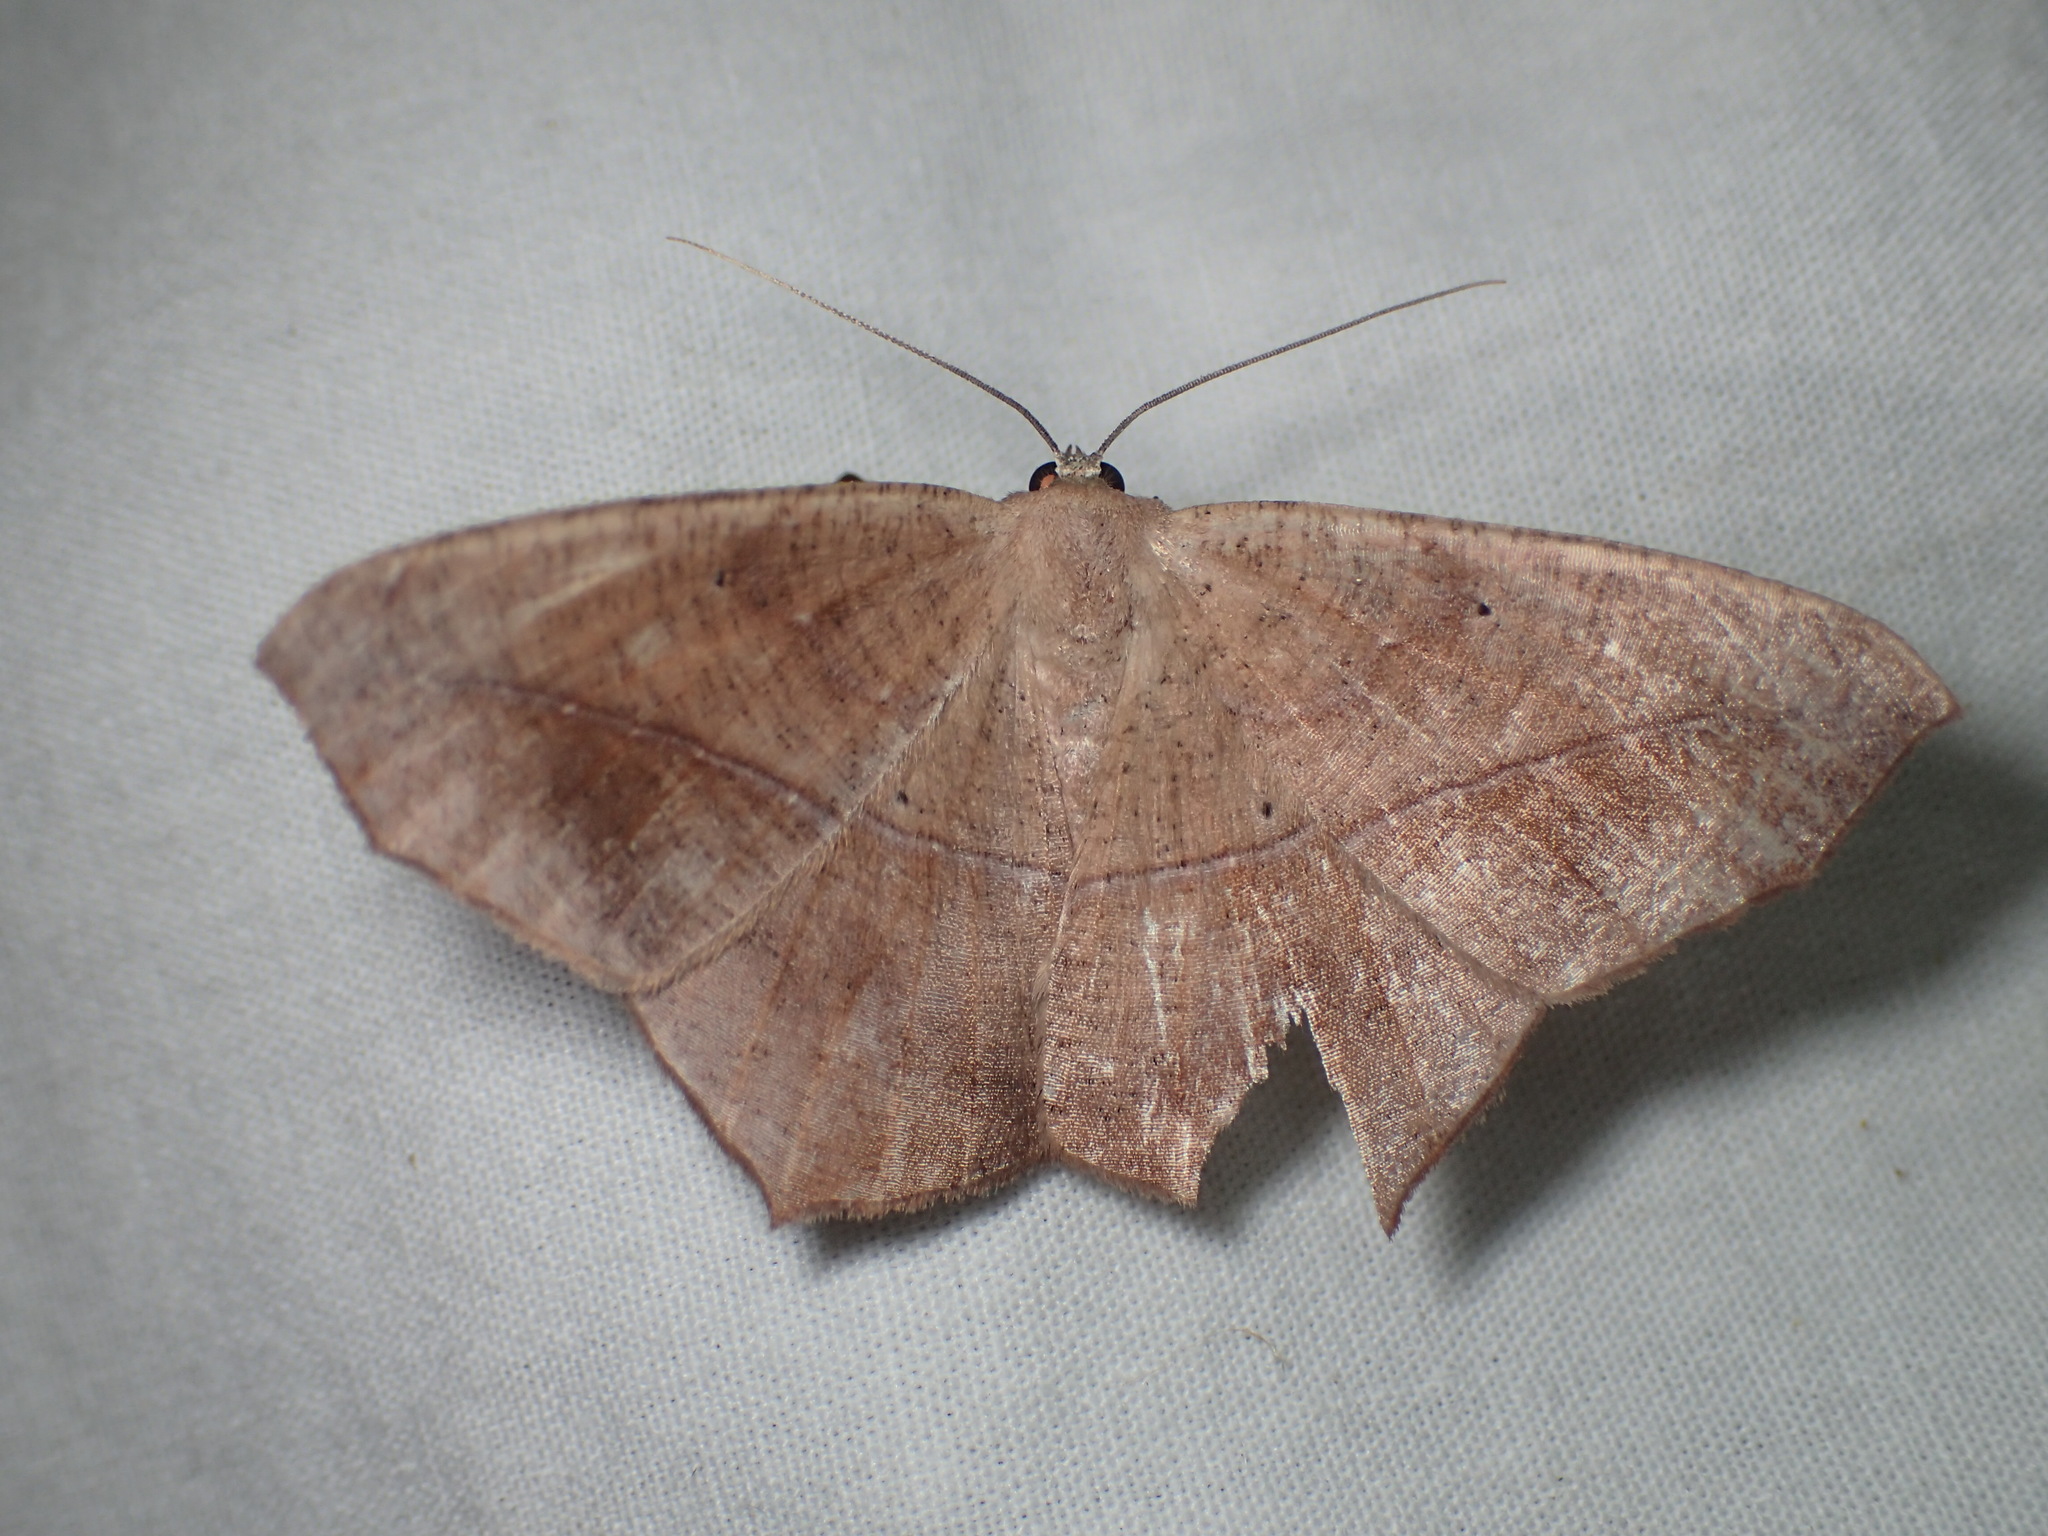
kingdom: Animalia
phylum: Arthropoda
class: Insecta
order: Lepidoptera
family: Geometridae
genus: Prochoerodes
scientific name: Prochoerodes lineola
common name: Large maple spanworm
